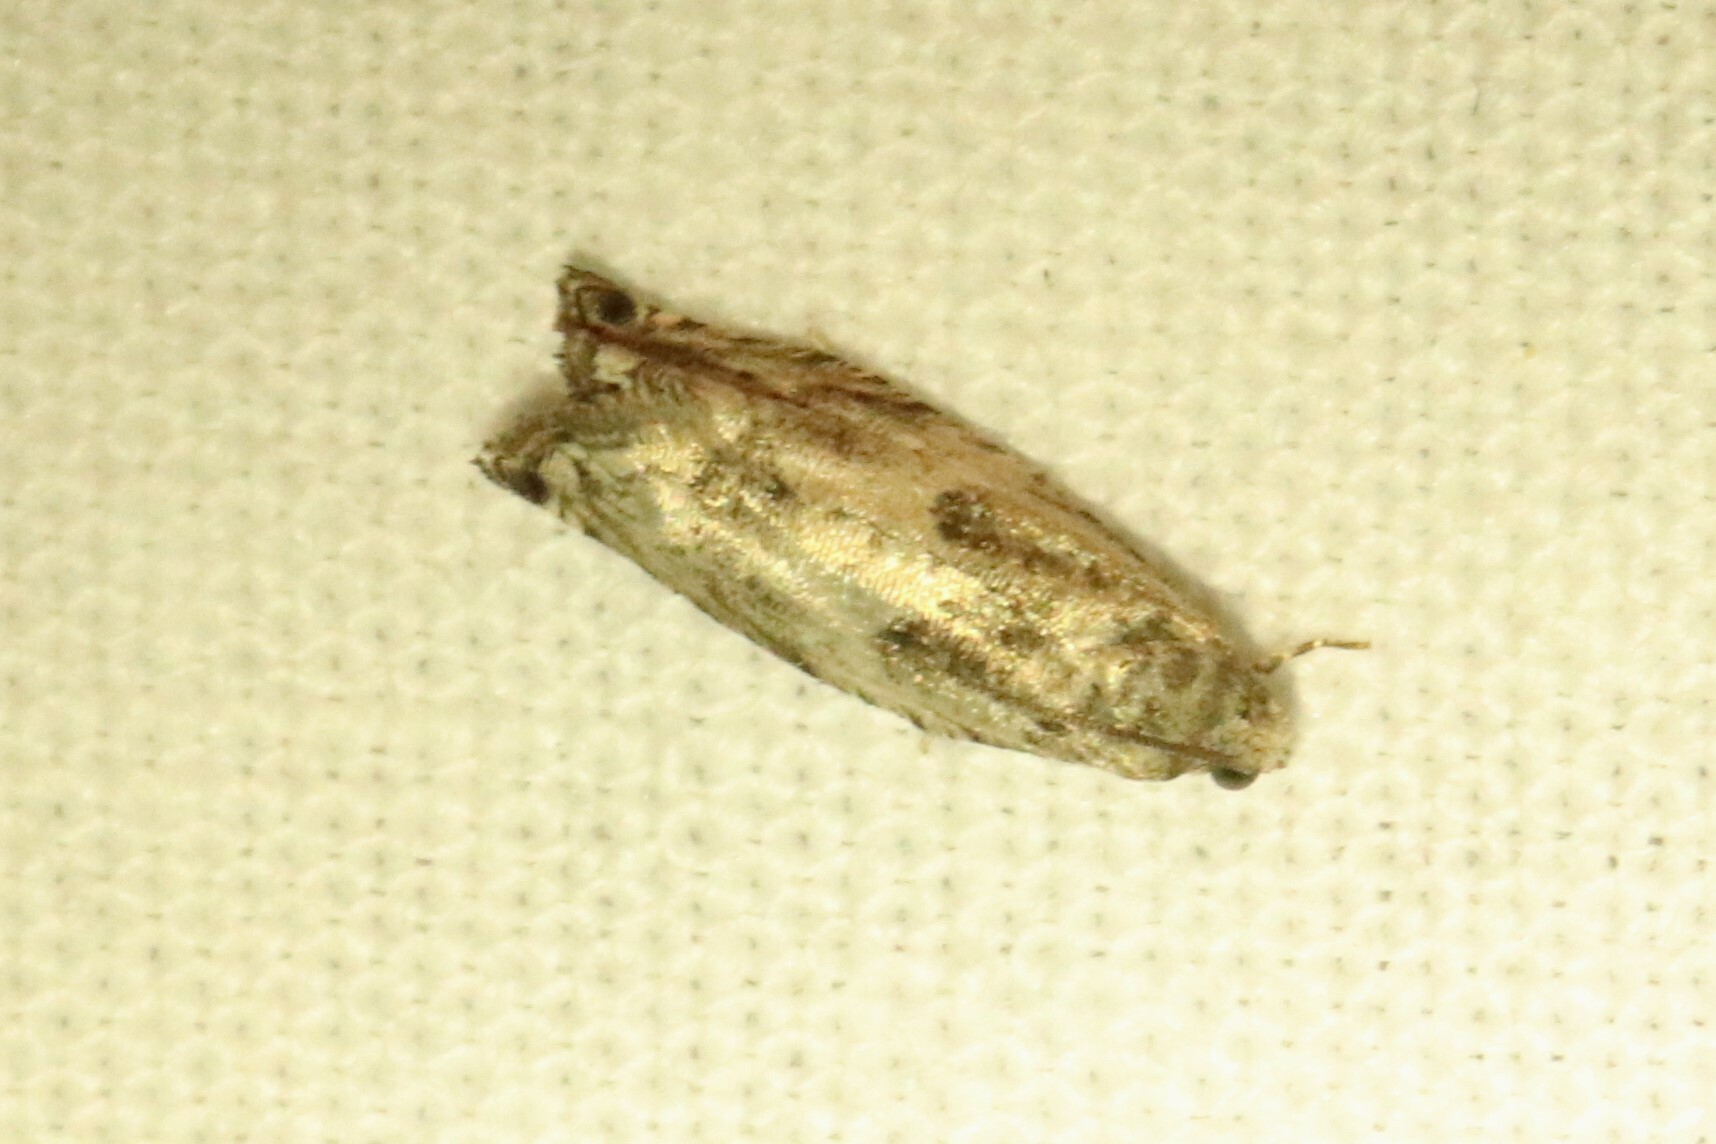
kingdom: Animalia
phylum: Arthropoda
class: Insecta
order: Lepidoptera
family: Tortricidae
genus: Spilonota
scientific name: Spilonota ocellana
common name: Bud moth
